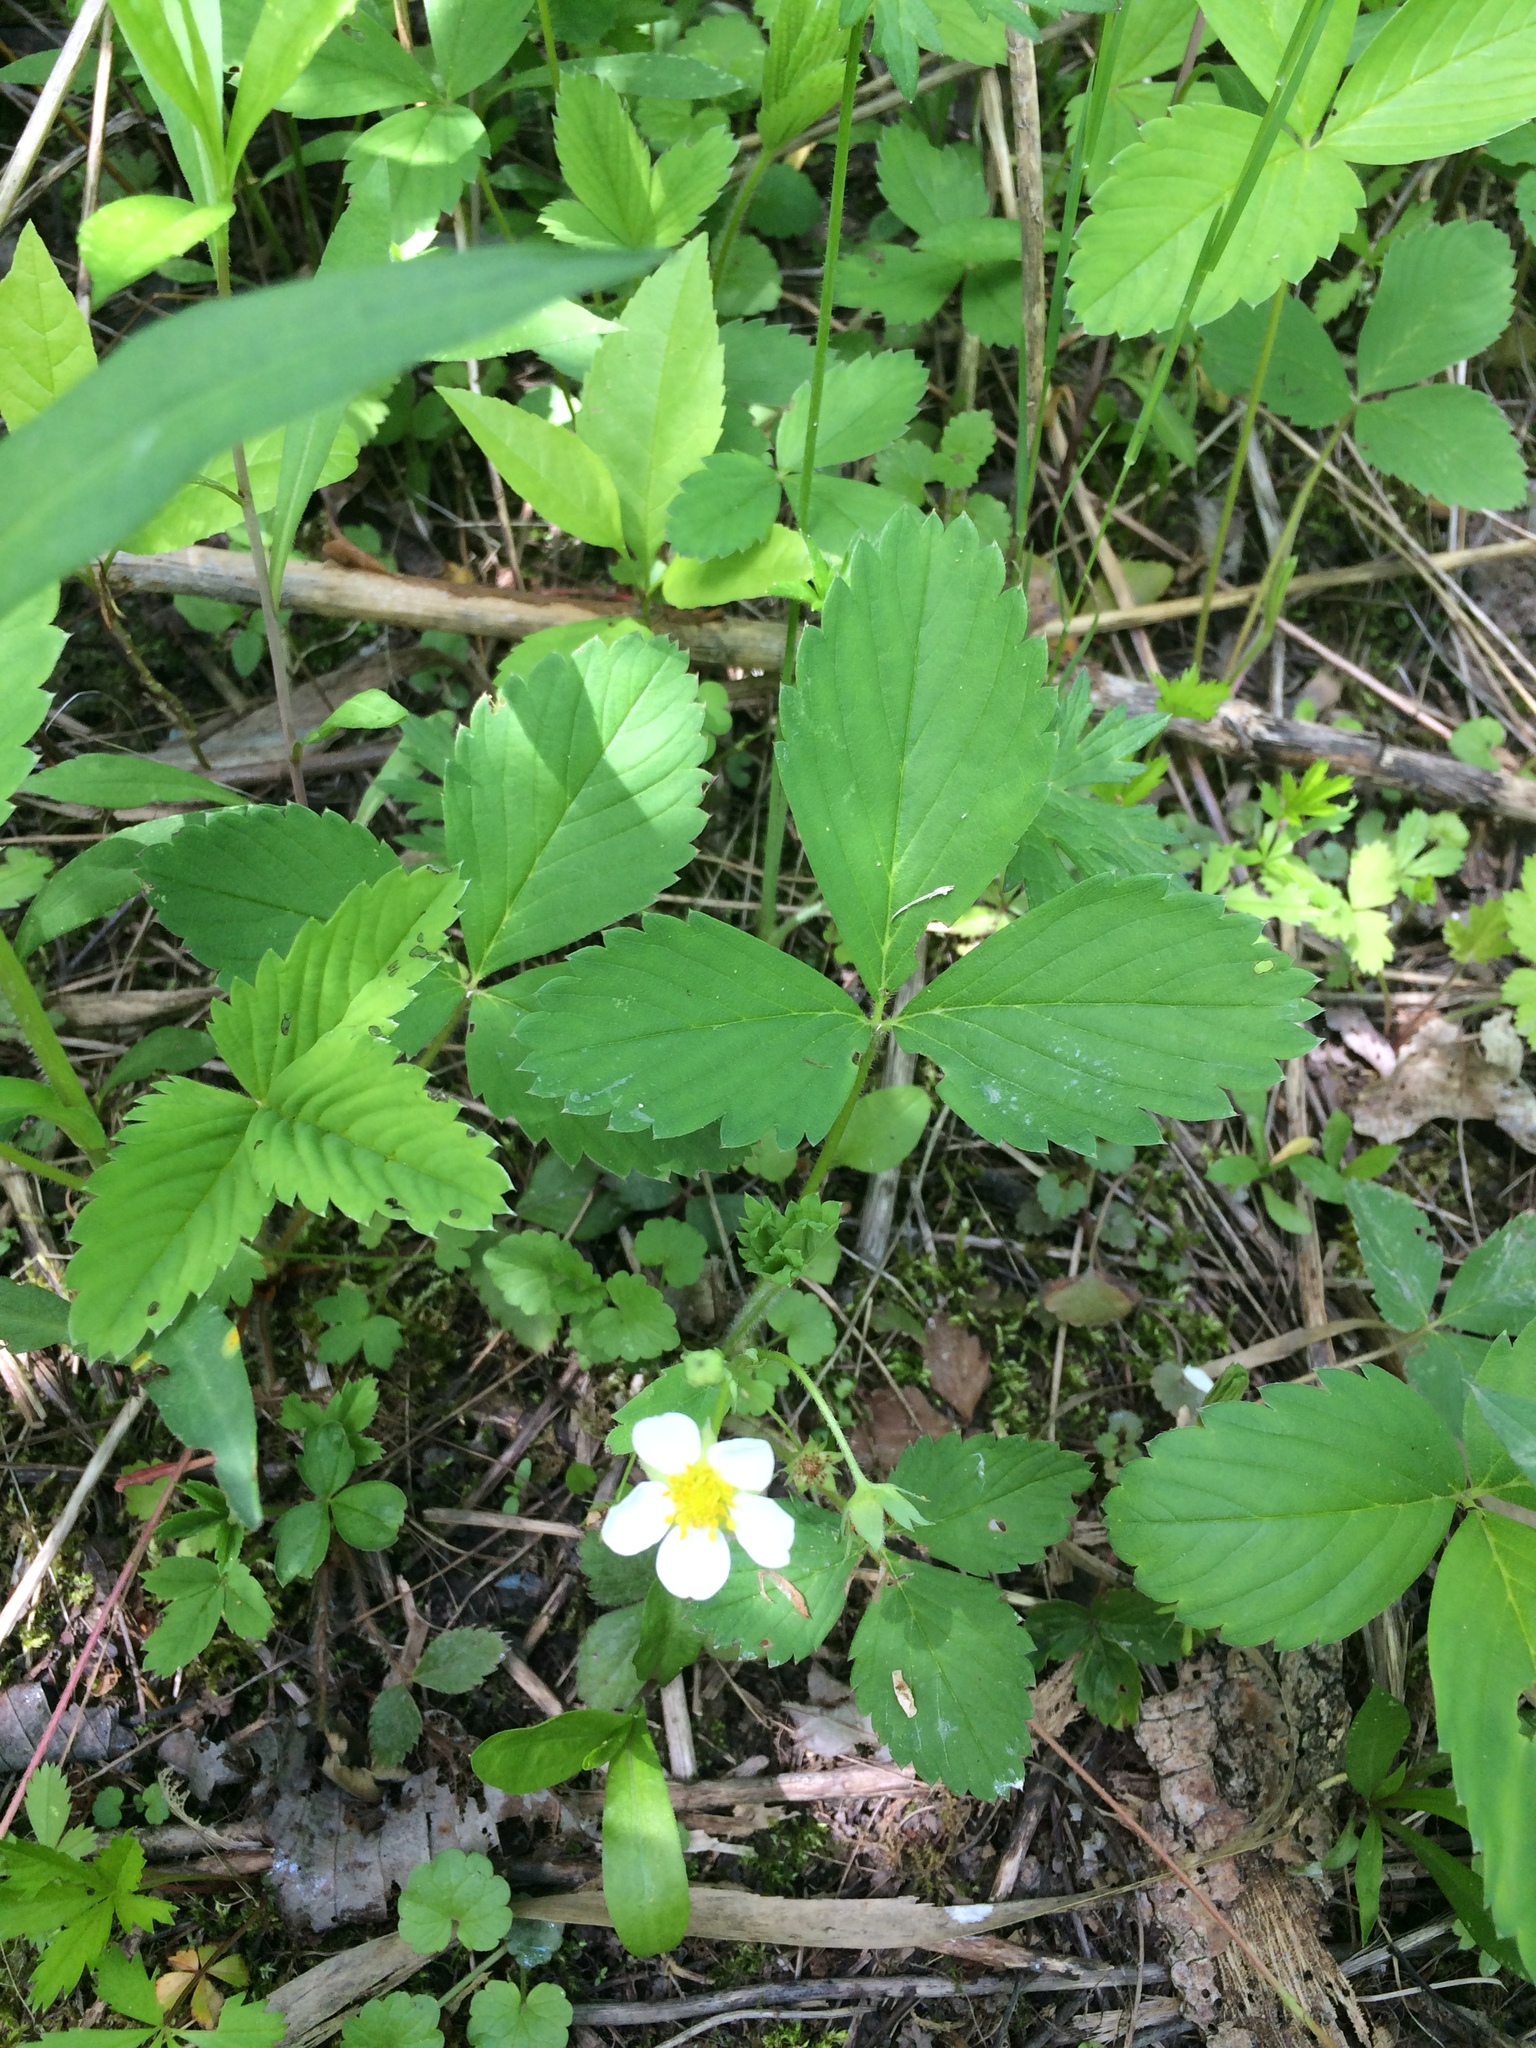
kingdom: Plantae
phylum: Tracheophyta
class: Magnoliopsida
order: Rosales
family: Rosaceae
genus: Fragaria
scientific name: Fragaria virginiana
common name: Thickleaved wild strawberry
